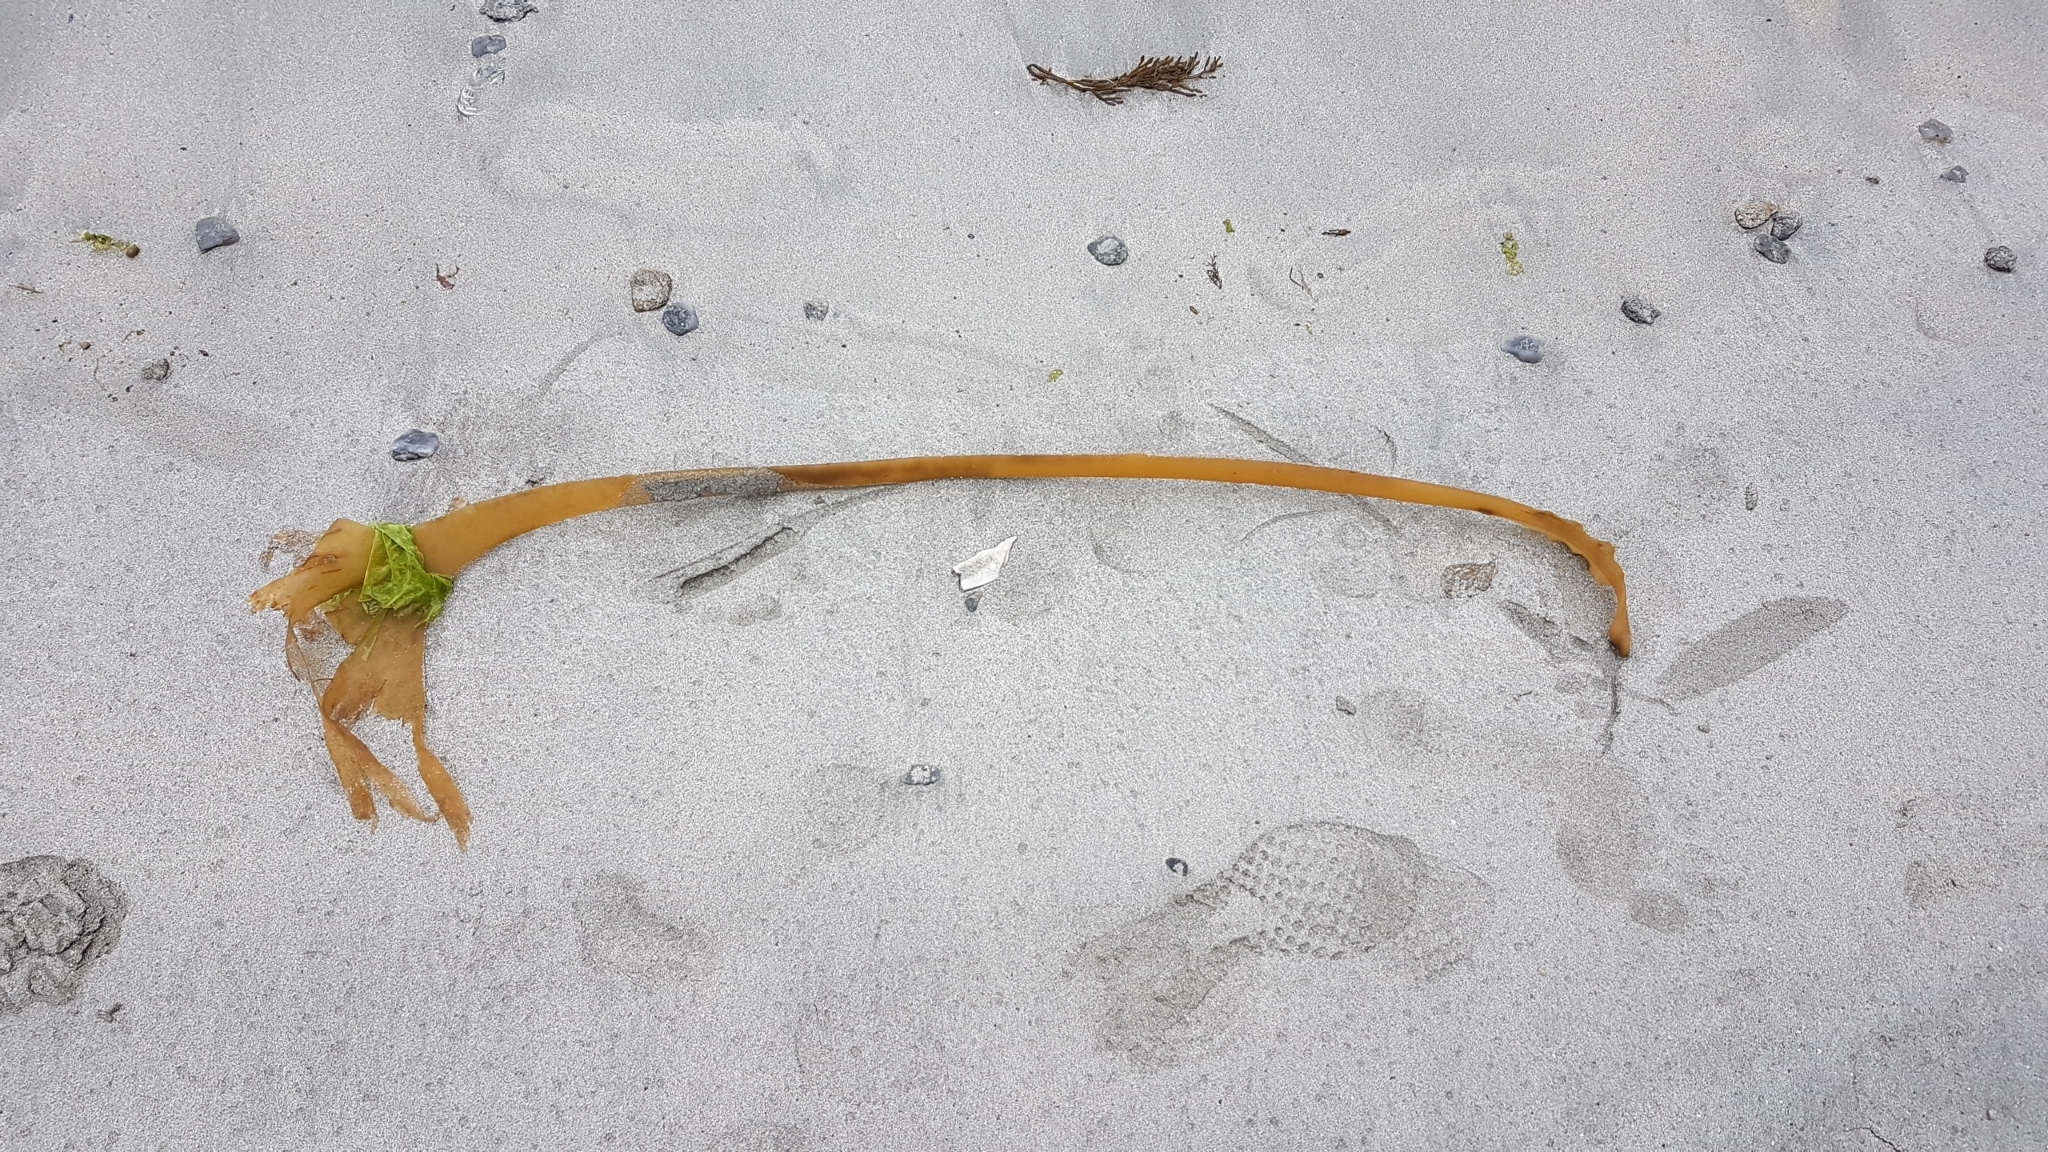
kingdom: Chromista
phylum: Ochrophyta
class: Phaeophyceae
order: Tilopteridales
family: Phyllariaceae
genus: Saccorhiza
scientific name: Saccorhiza polyschides
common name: Furbelows
